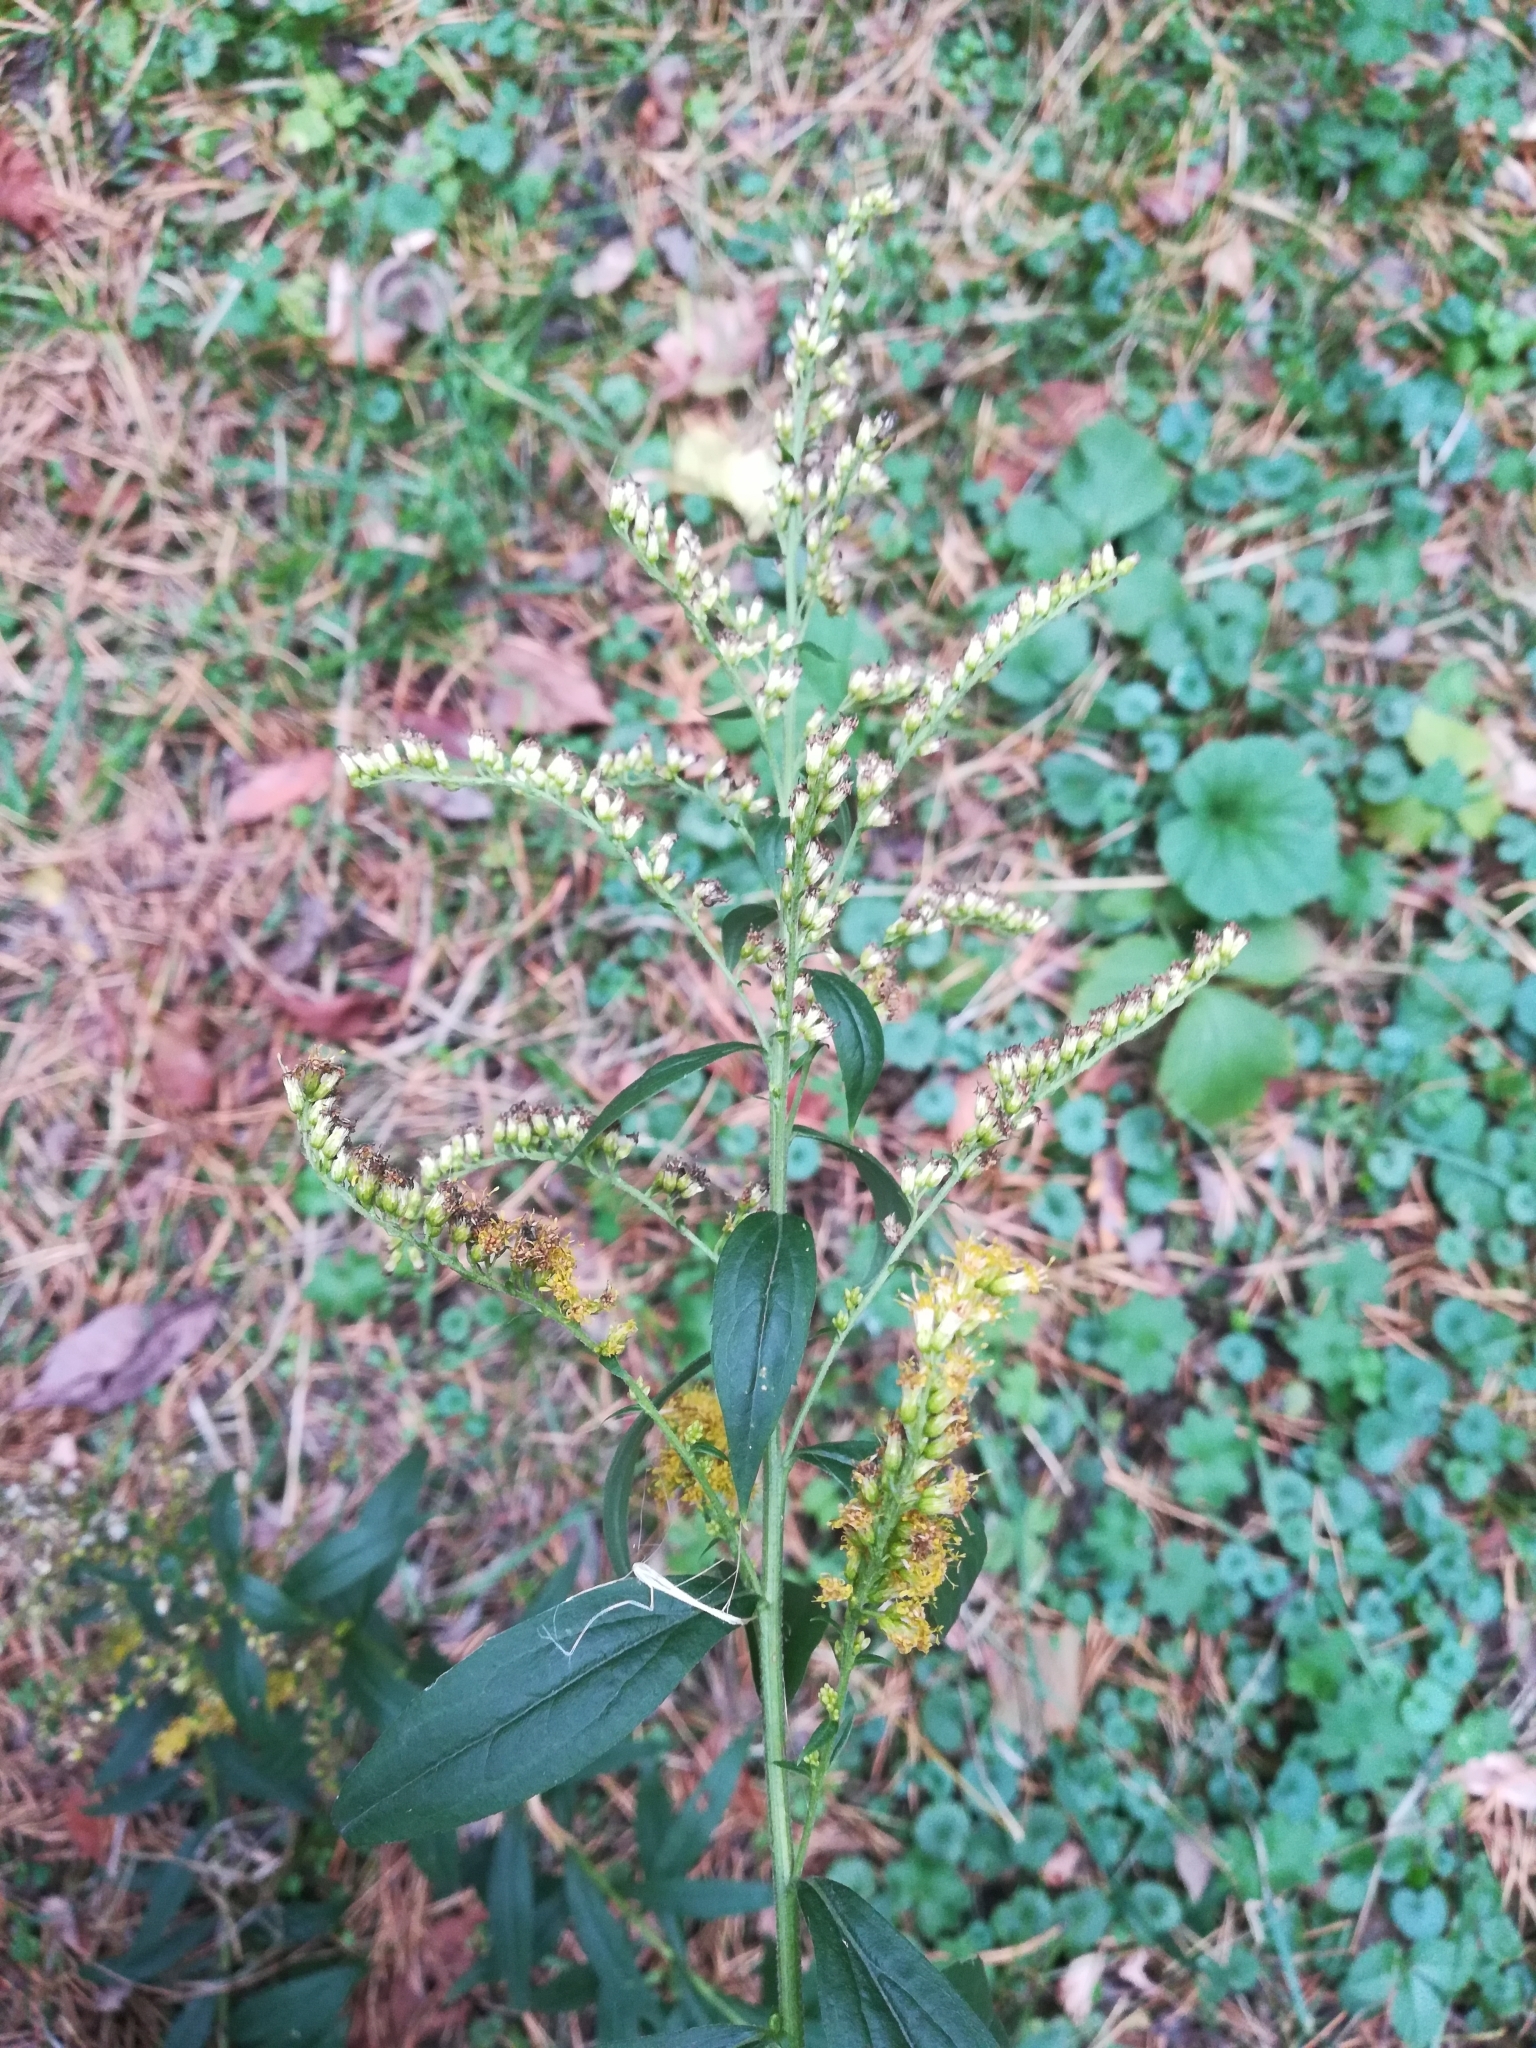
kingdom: Plantae
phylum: Tracheophyta
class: Magnoliopsida
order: Asterales
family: Asteraceae
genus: Solidago
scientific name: Solidago canadensis
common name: Canada goldenrod
